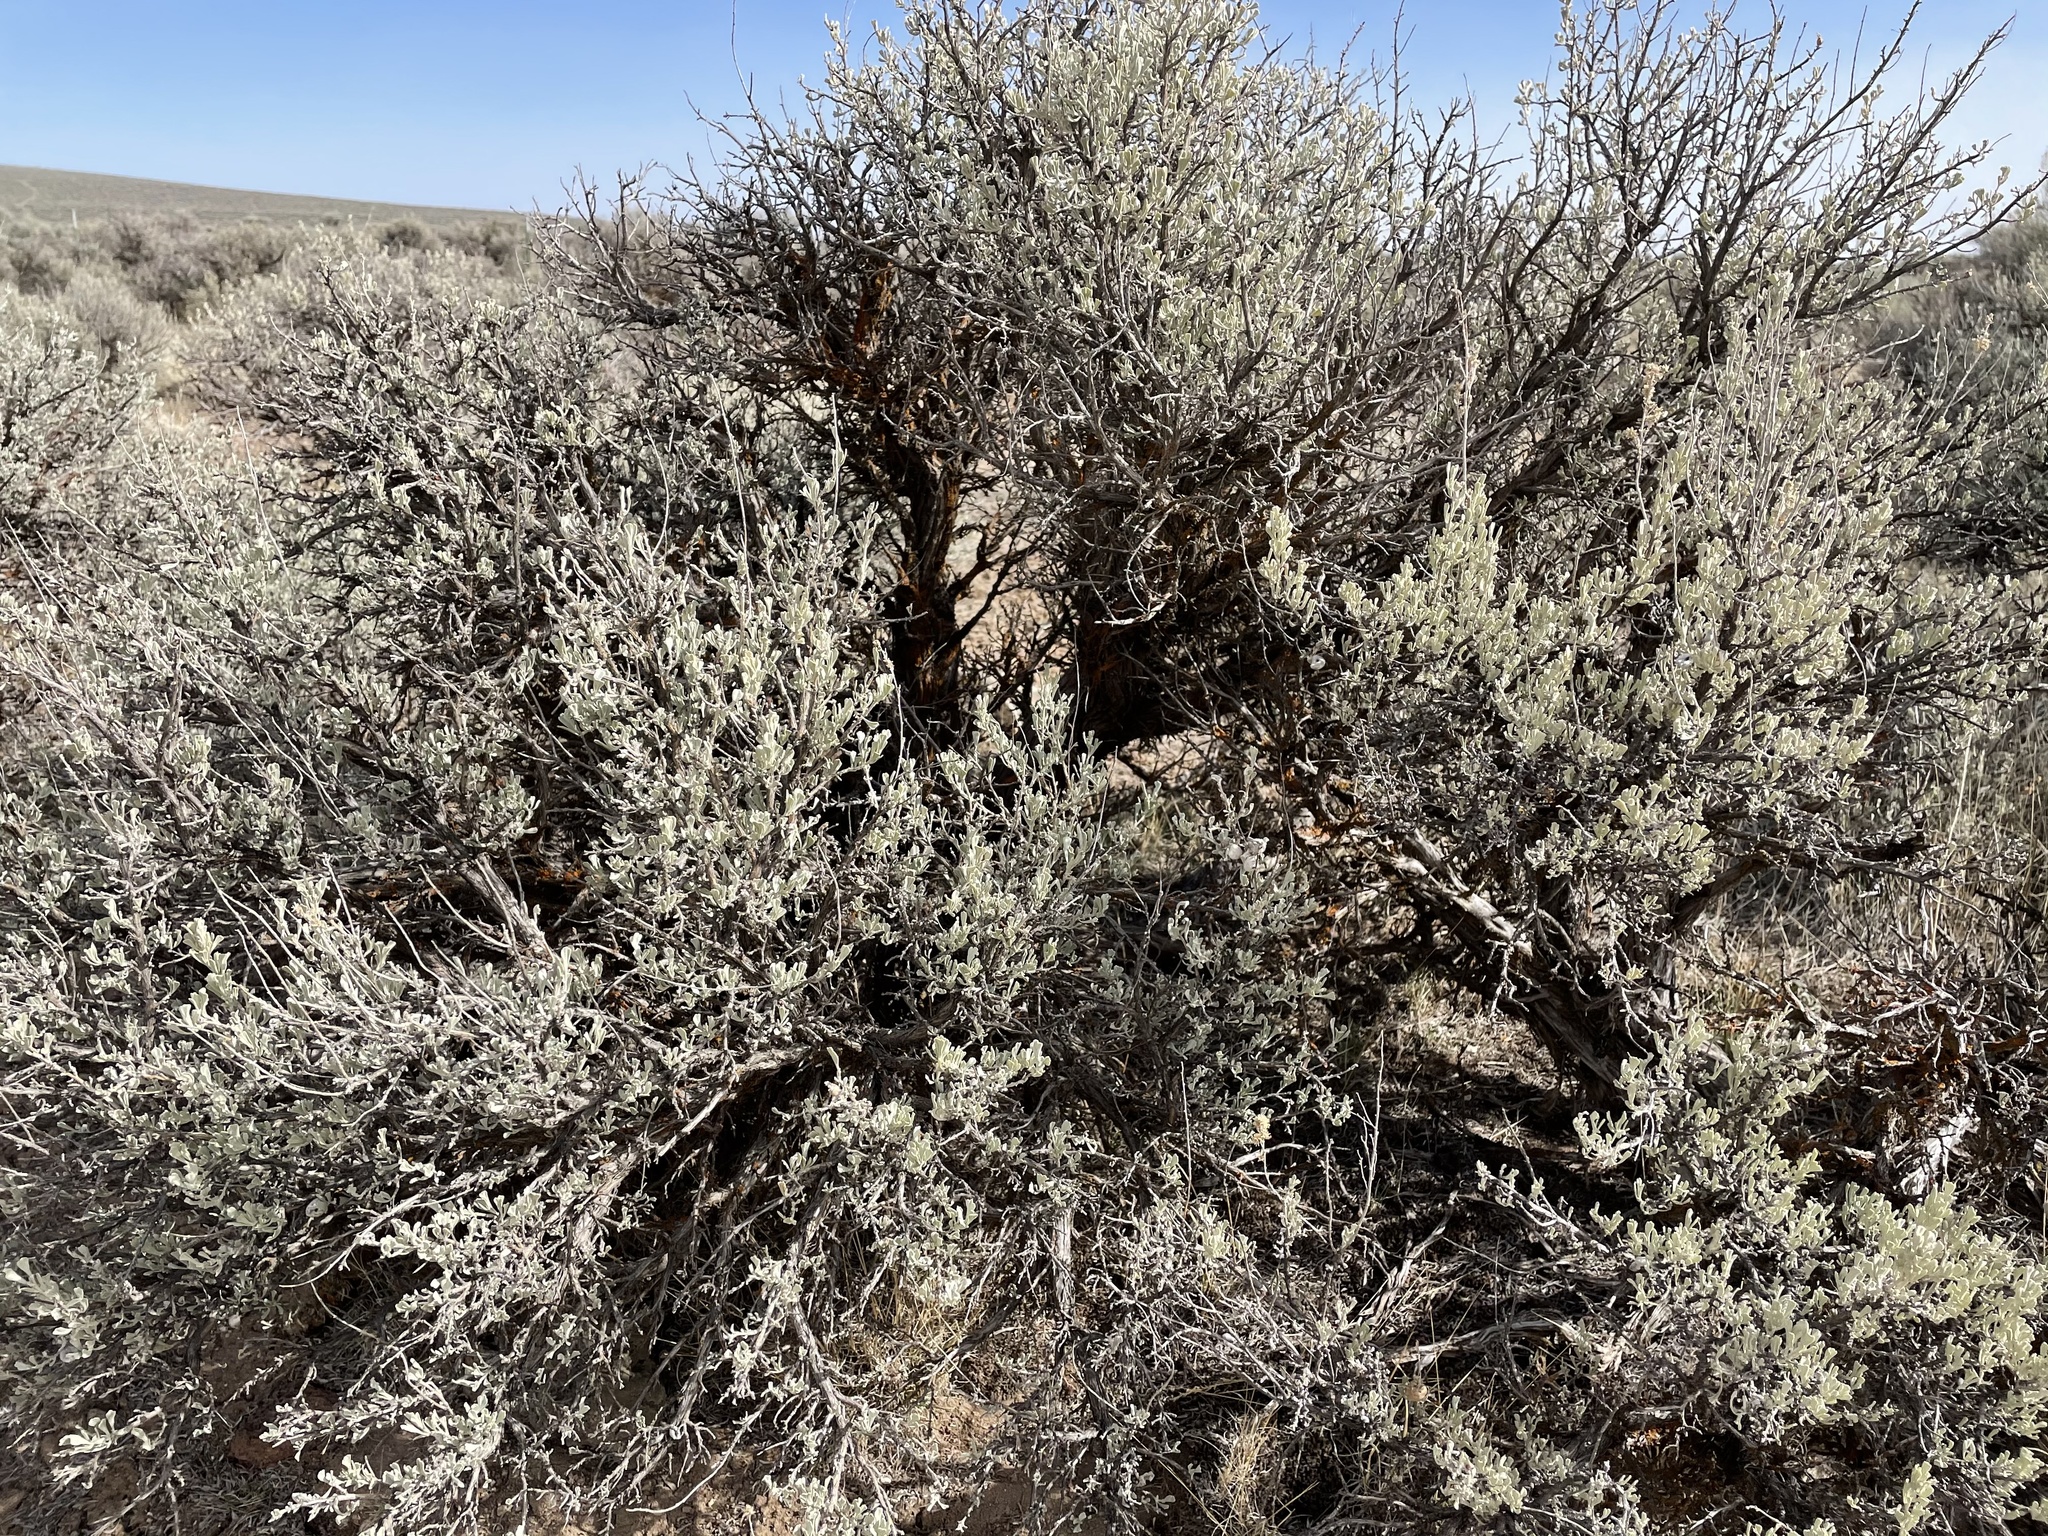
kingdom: Plantae
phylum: Tracheophyta
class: Magnoliopsida
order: Asterales
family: Asteraceae
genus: Artemisia
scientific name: Artemisia tridentata
